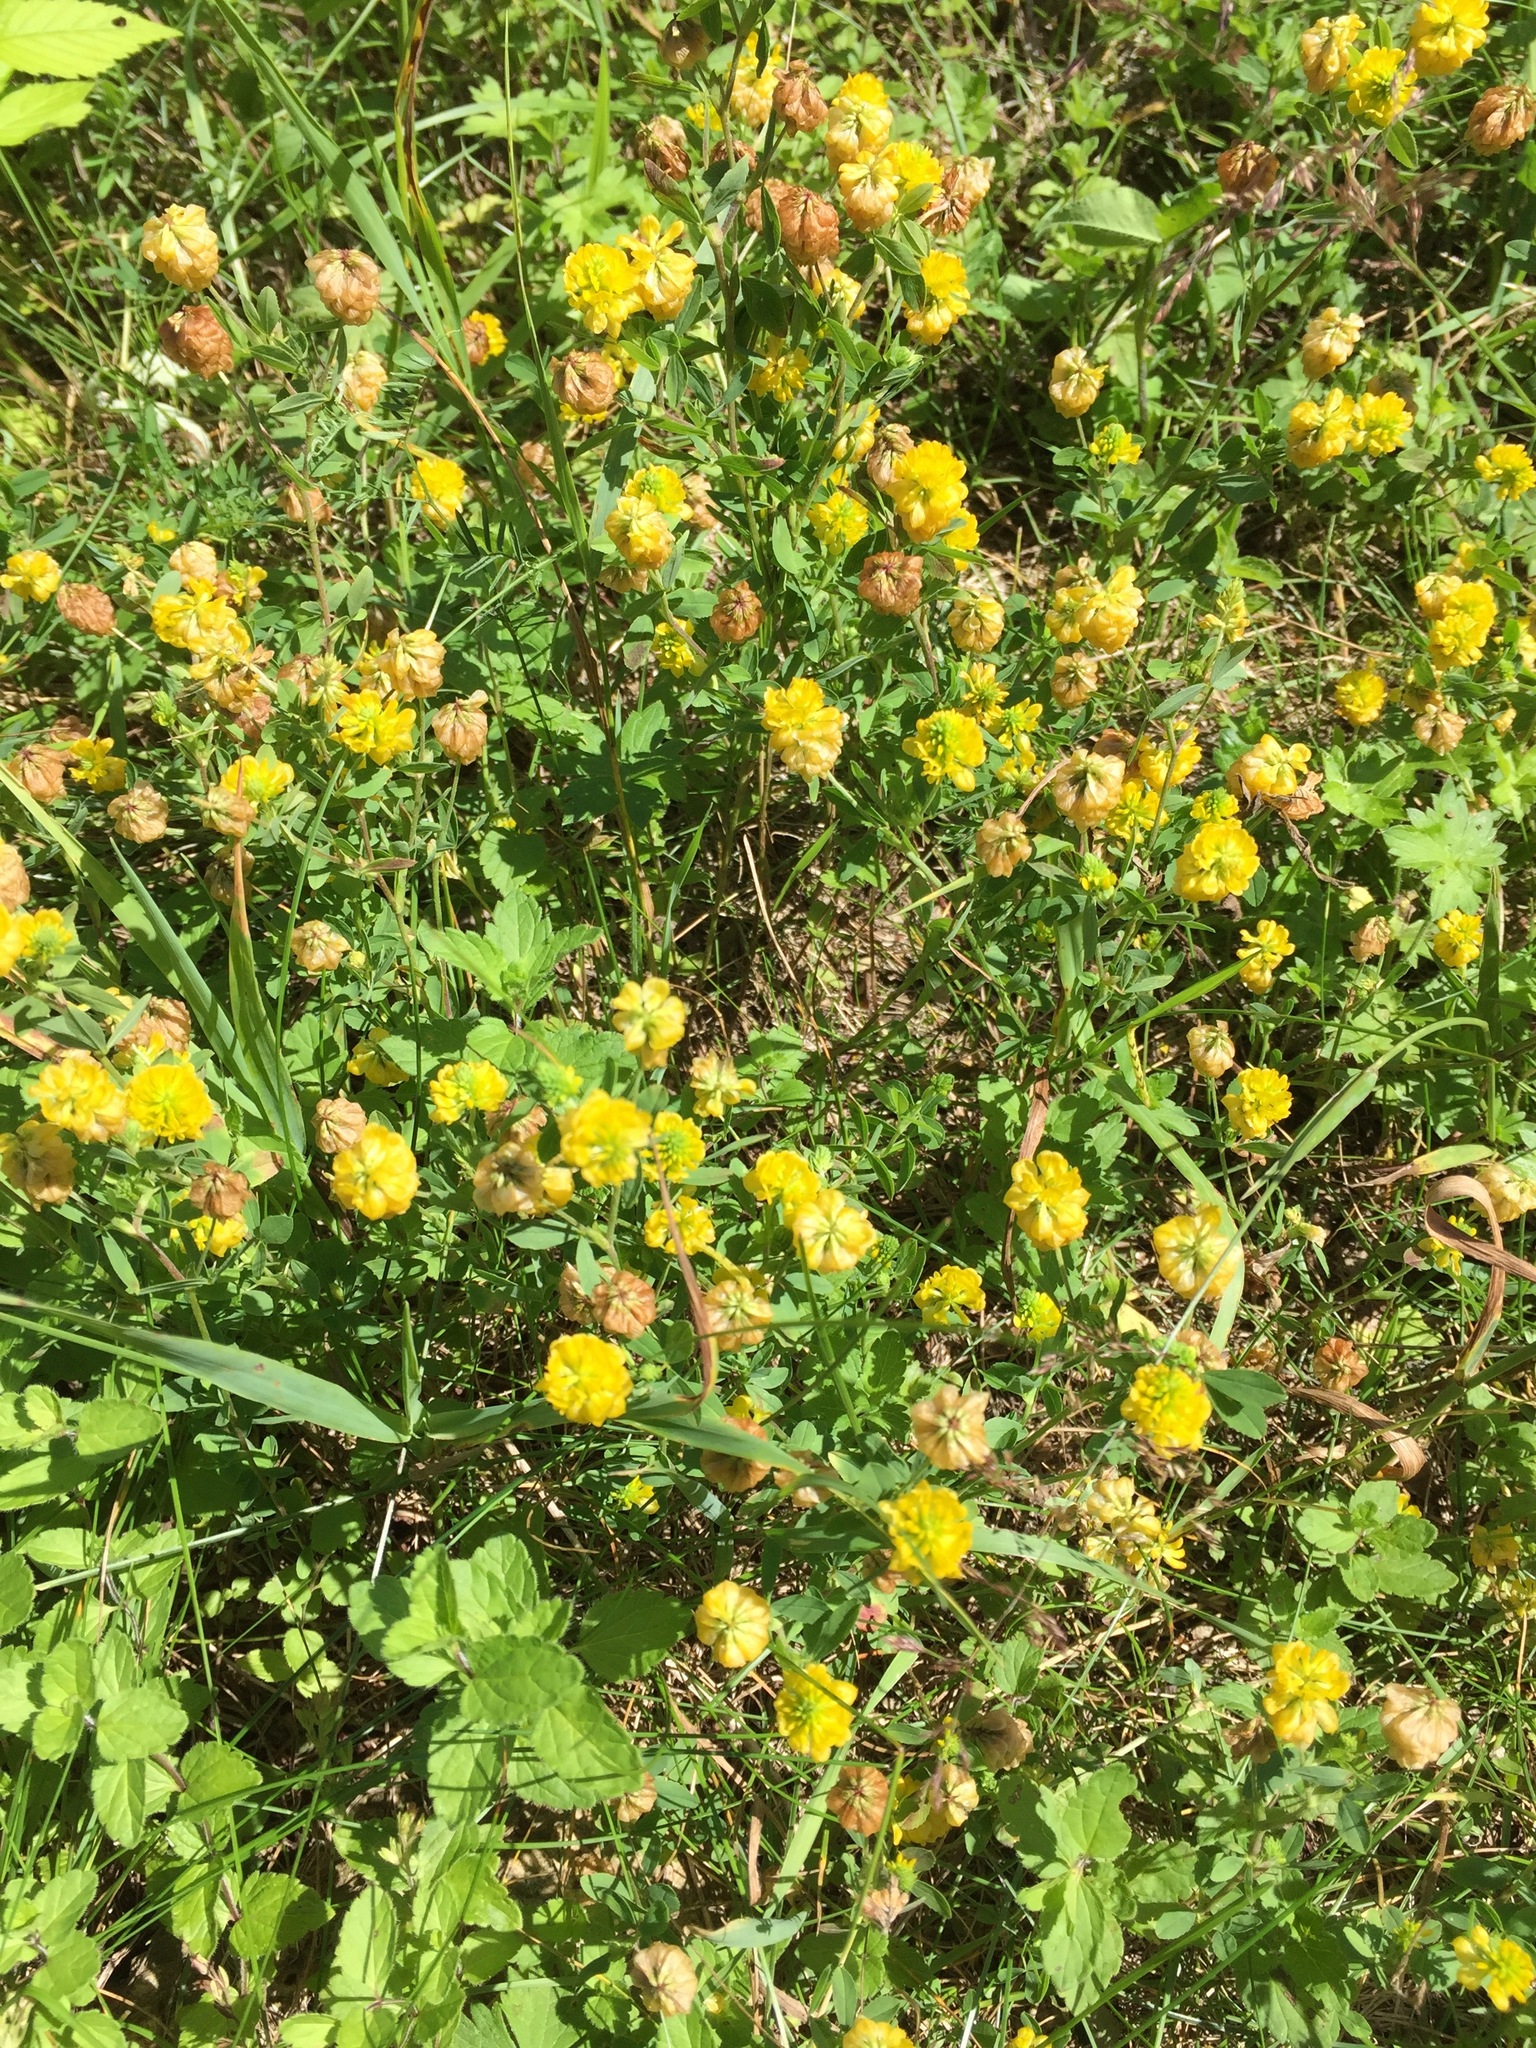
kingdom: Plantae
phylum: Tracheophyta
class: Magnoliopsida
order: Fabales
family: Fabaceae
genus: Trifolium
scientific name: Trifolium aureum
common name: Golden clover
